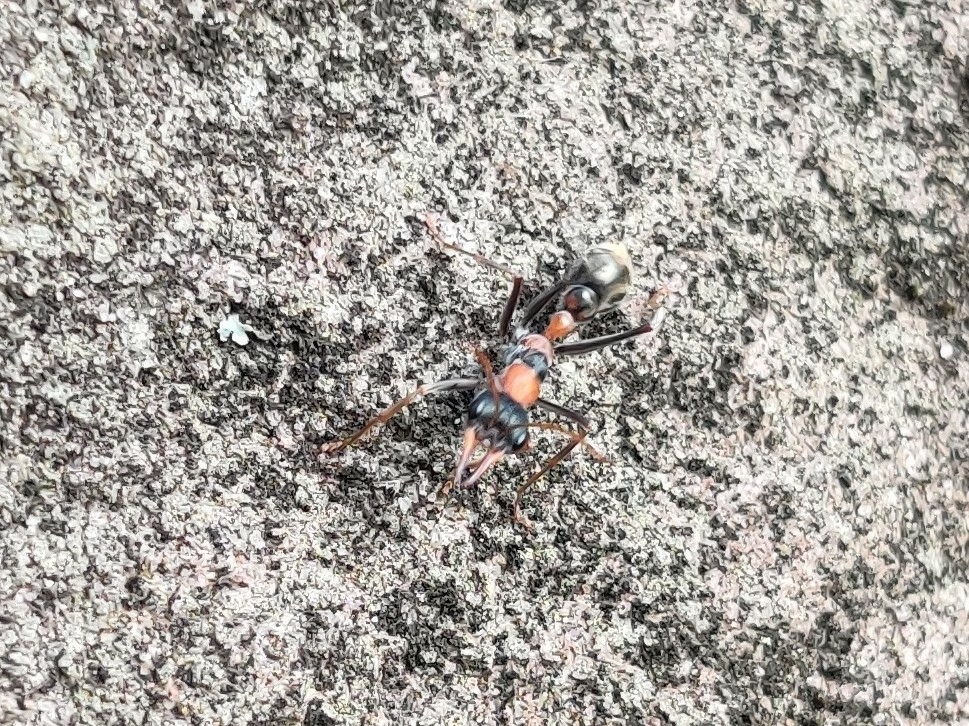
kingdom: Animalia
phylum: Arthropoda
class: Insecta
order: Hymenoptera
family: Formicidae
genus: Myrmecia
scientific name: Myrmecia nigrocincta
